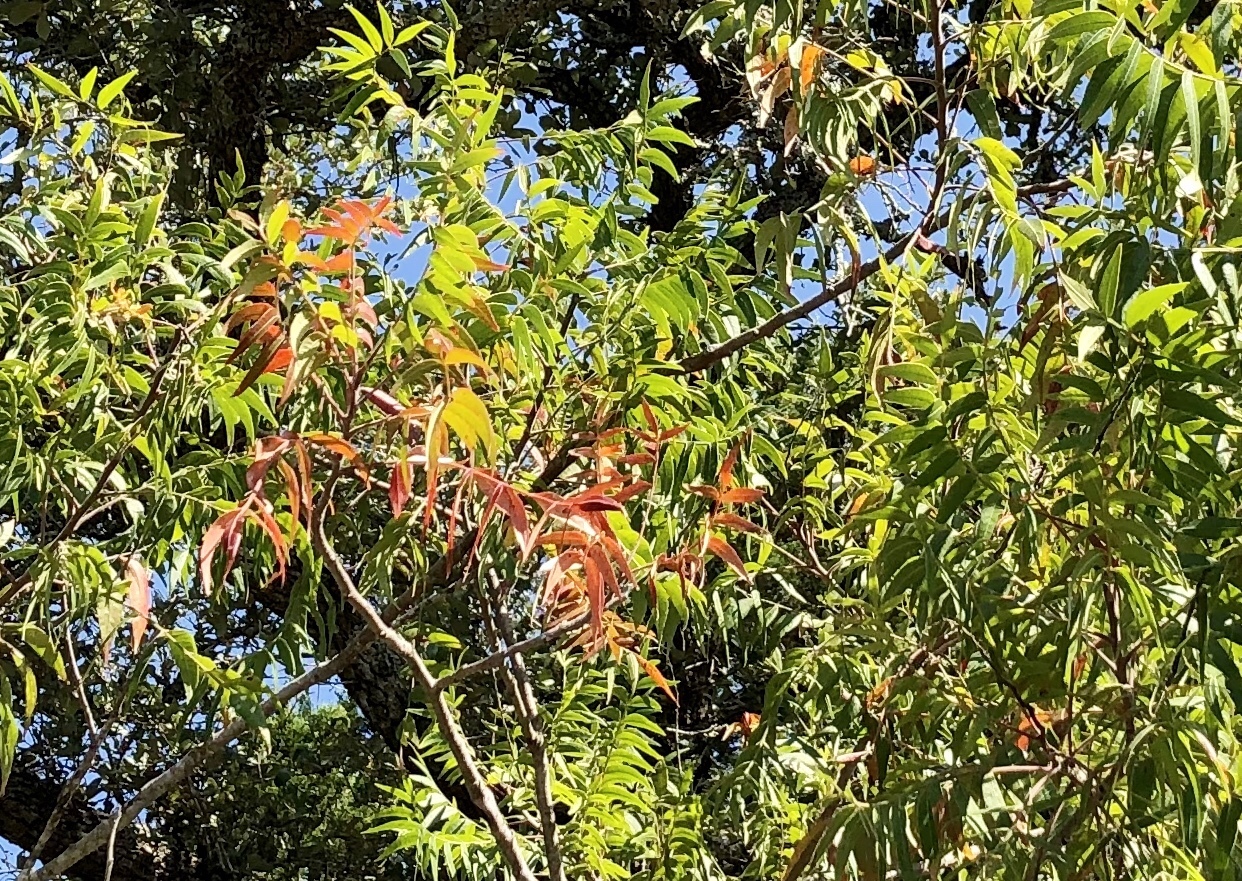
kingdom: Plantae
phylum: Tracheophyta
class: Magnoliopsida
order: Sapindales
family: Anacardiaceae
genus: Rhus
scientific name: Rhus lanceolata
